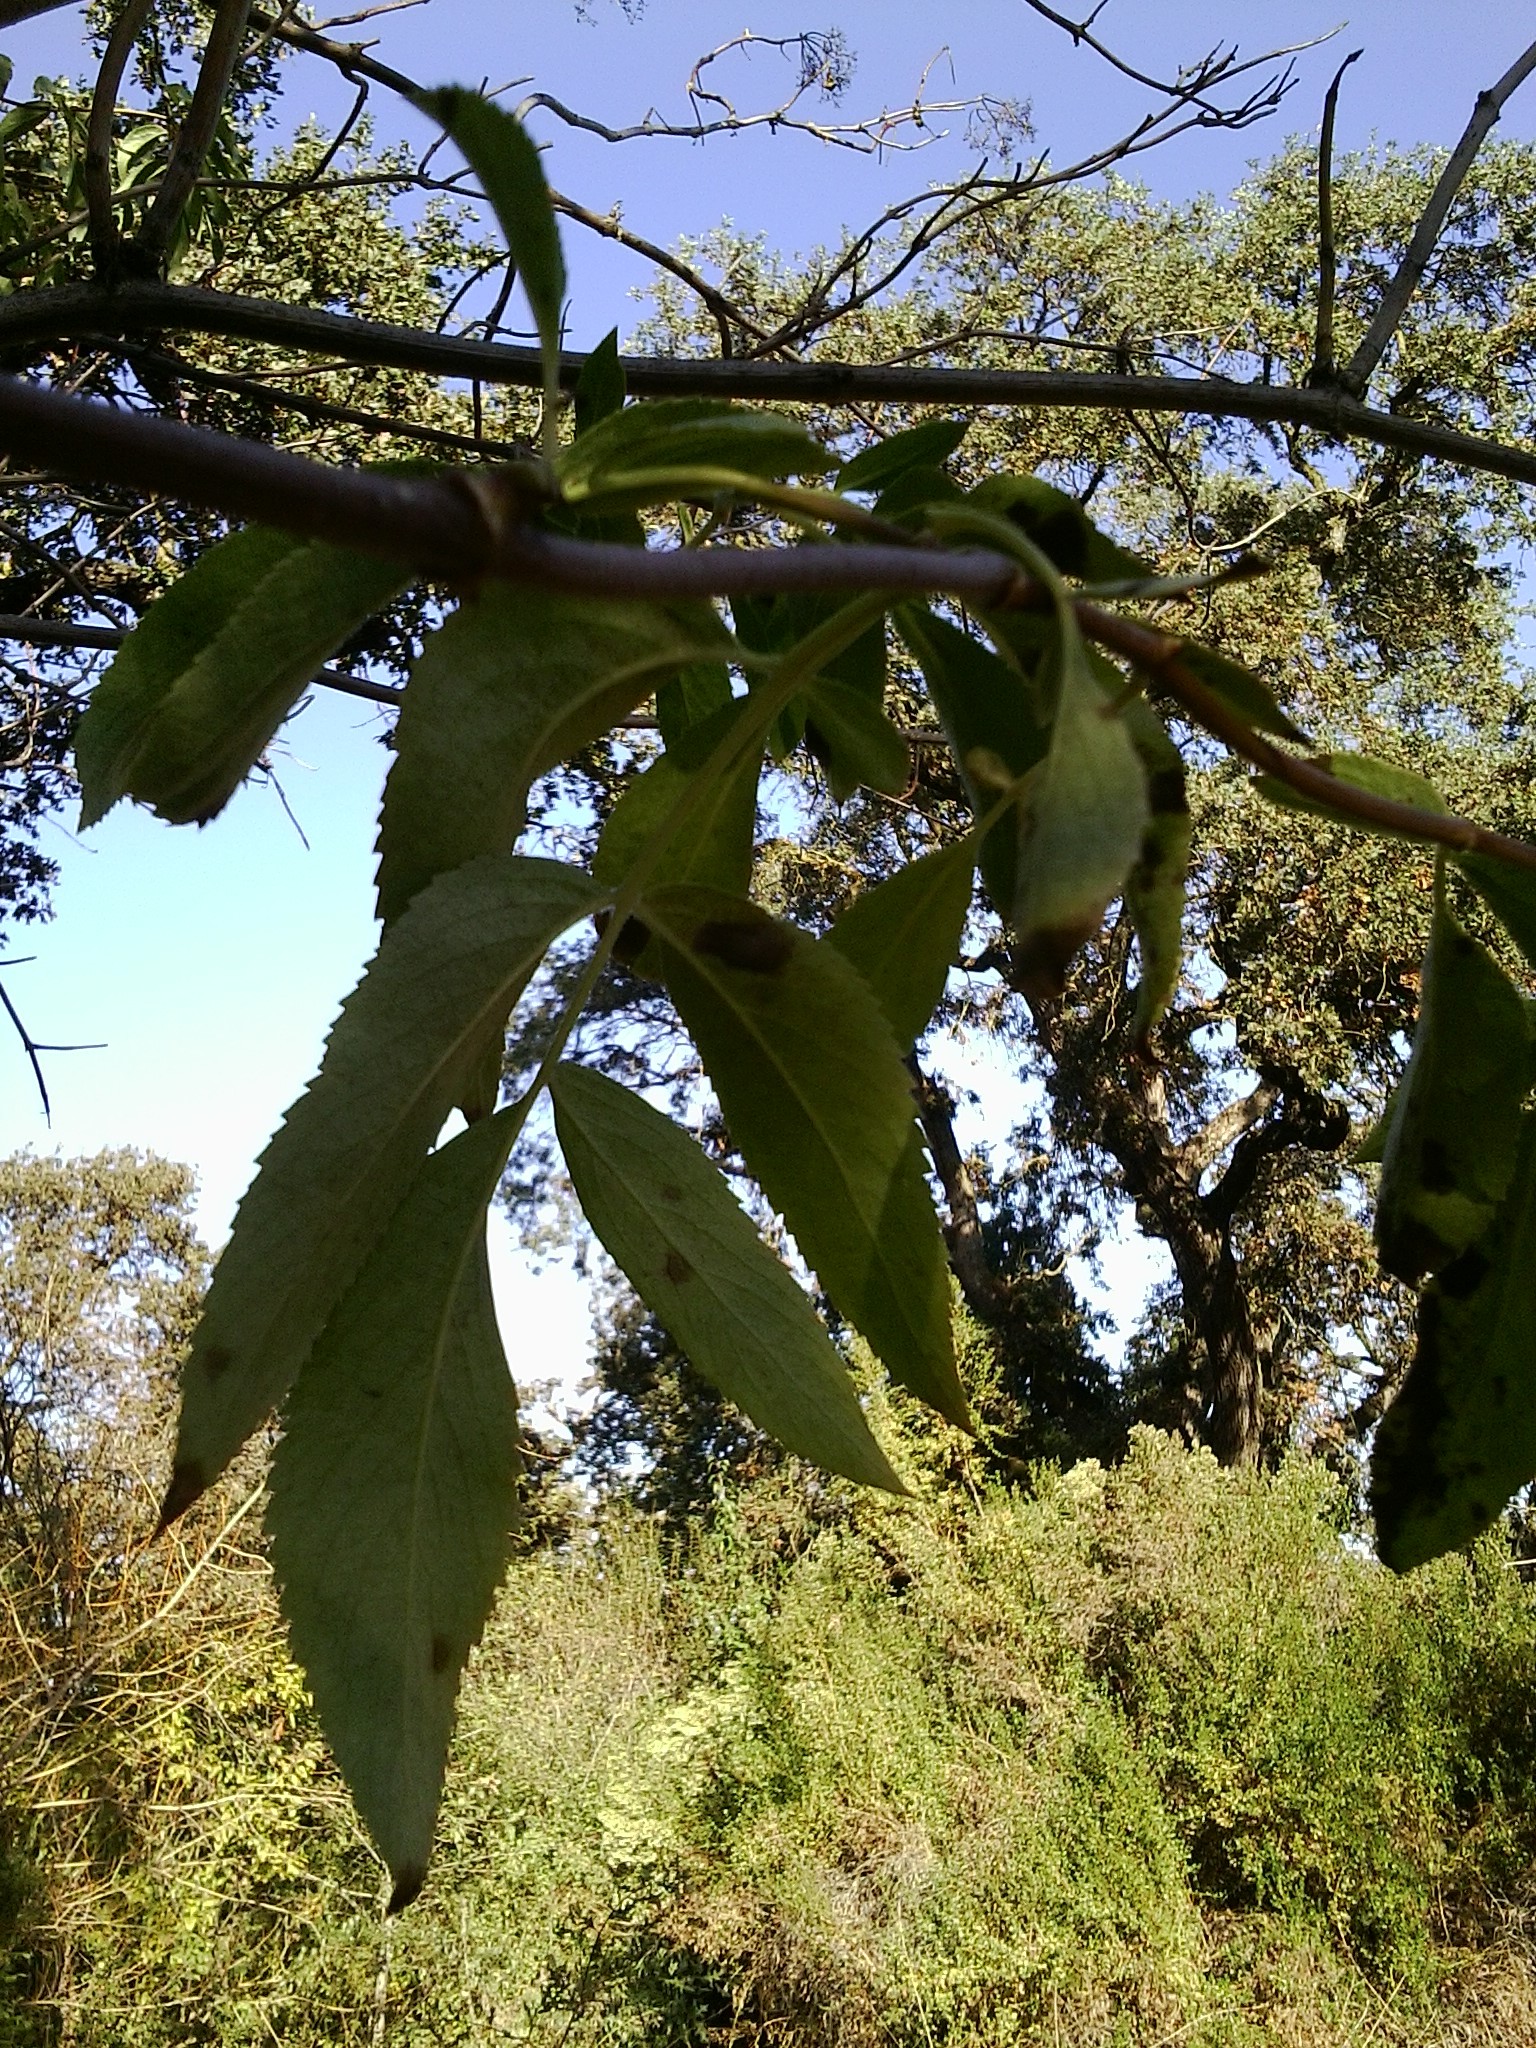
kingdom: Plantae
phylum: Tracheophyta
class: Magnoliopsida
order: Dipsacales
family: Viburnaceae
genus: Sambucus
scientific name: Sambucus cerulea
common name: Blue elder
